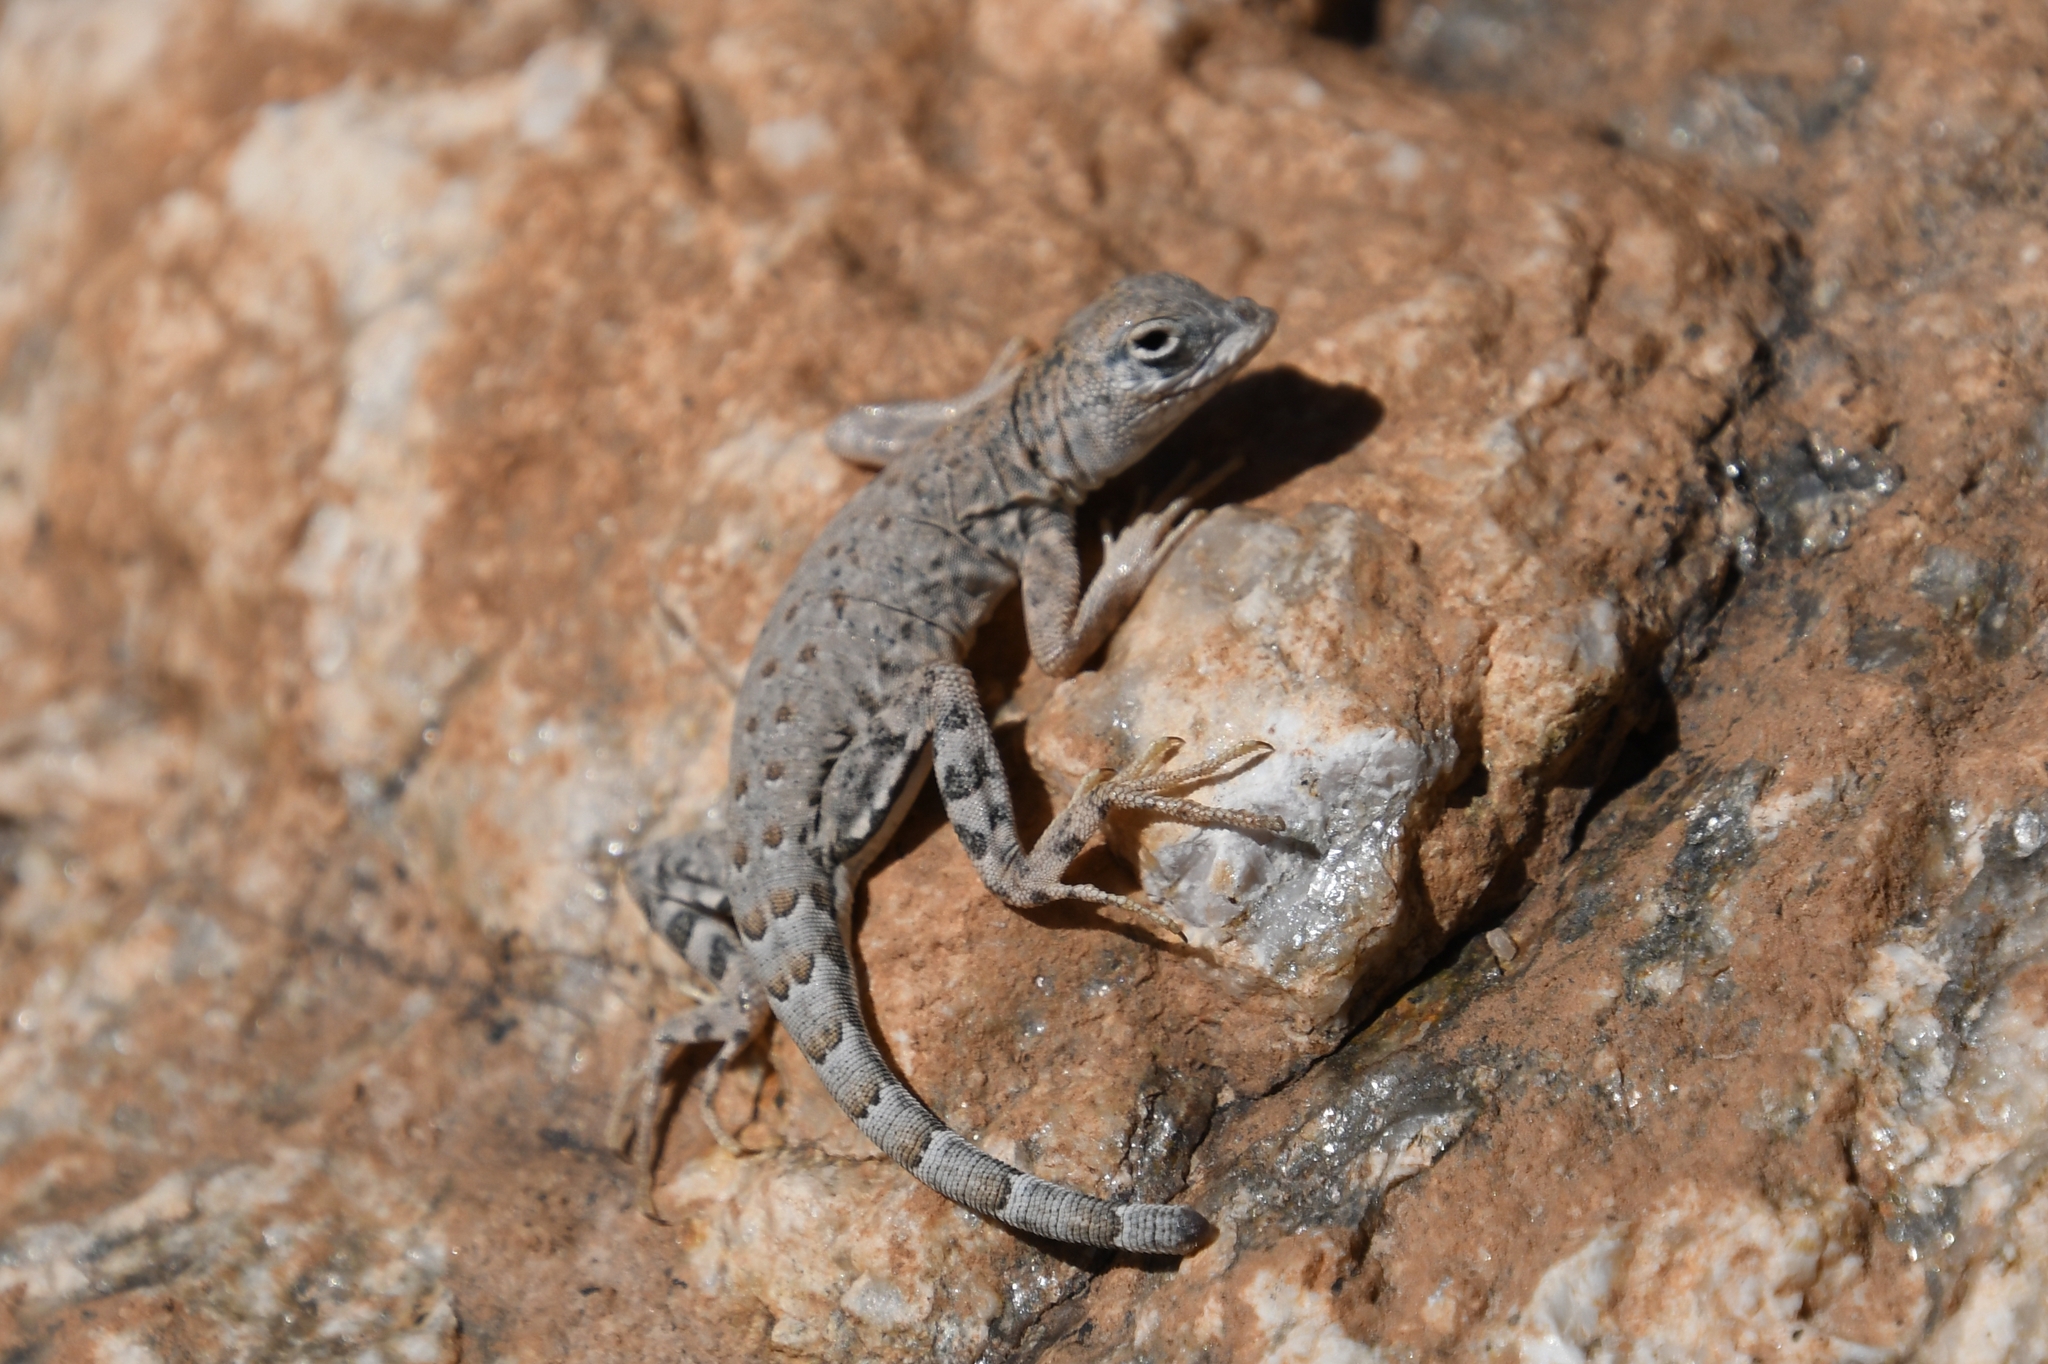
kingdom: Animalia
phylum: Chordata
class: Squamata
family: Phrynosomatidae
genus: Cophosaurus
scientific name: Cophosaurus texanus
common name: Greater earless lizard
